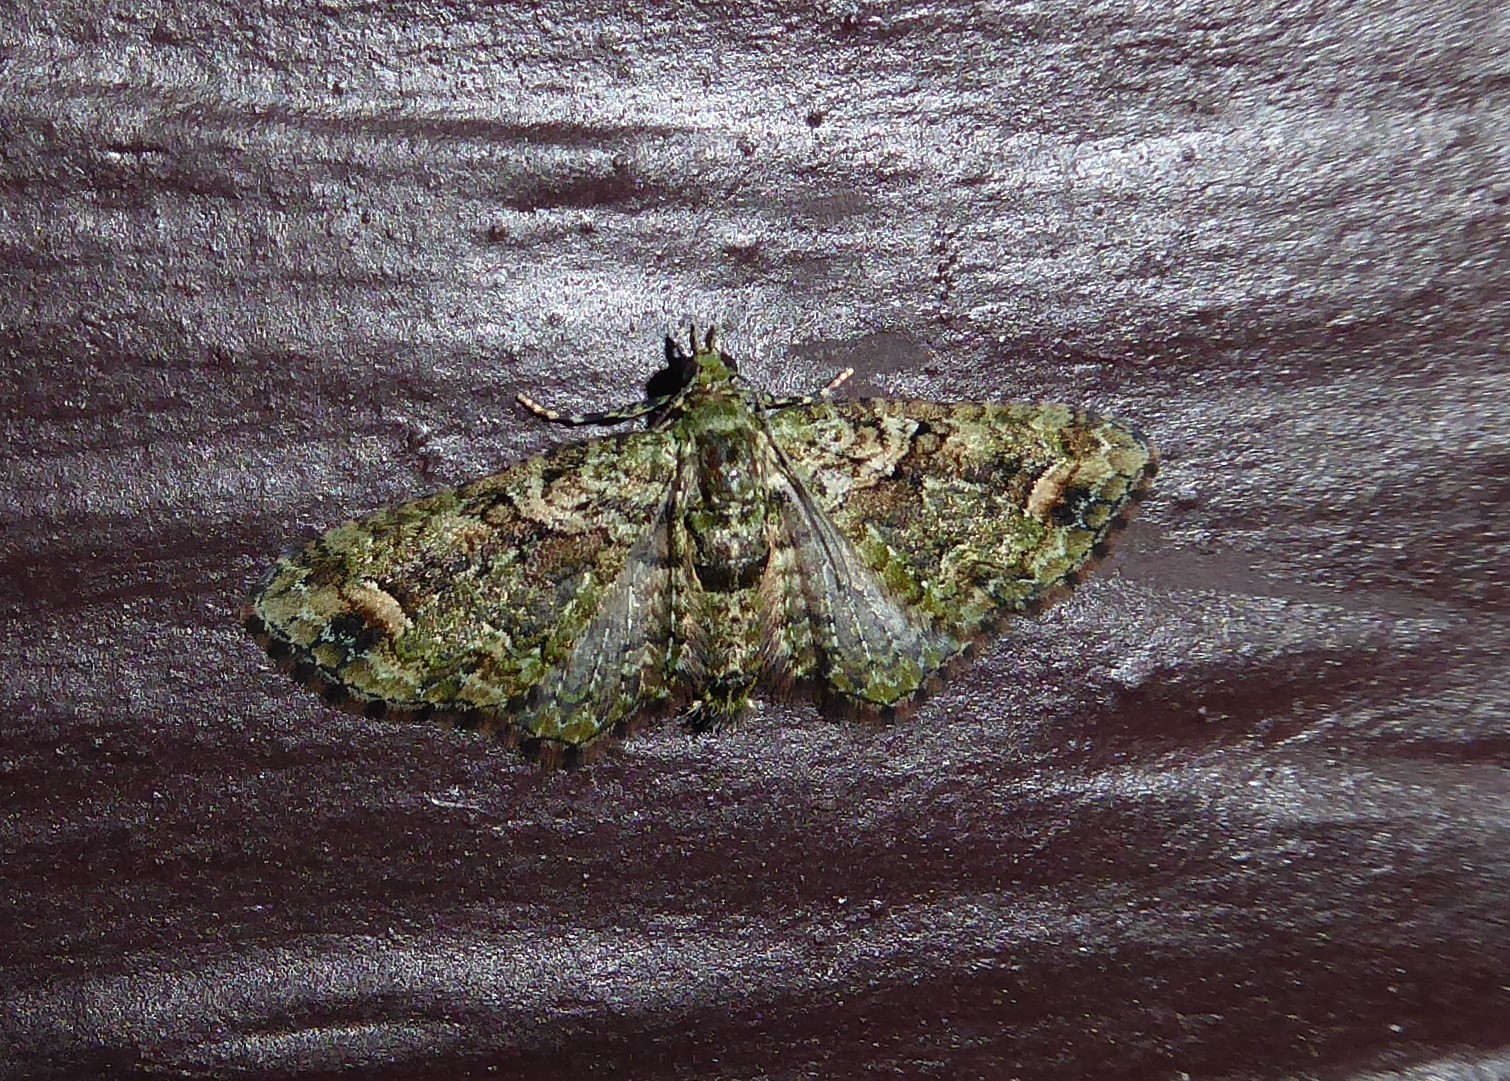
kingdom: Animalia
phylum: Arthropoda
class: Insecta
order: Lepidoptera
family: Geometridae
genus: Idaea
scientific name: Idaea mutanda
